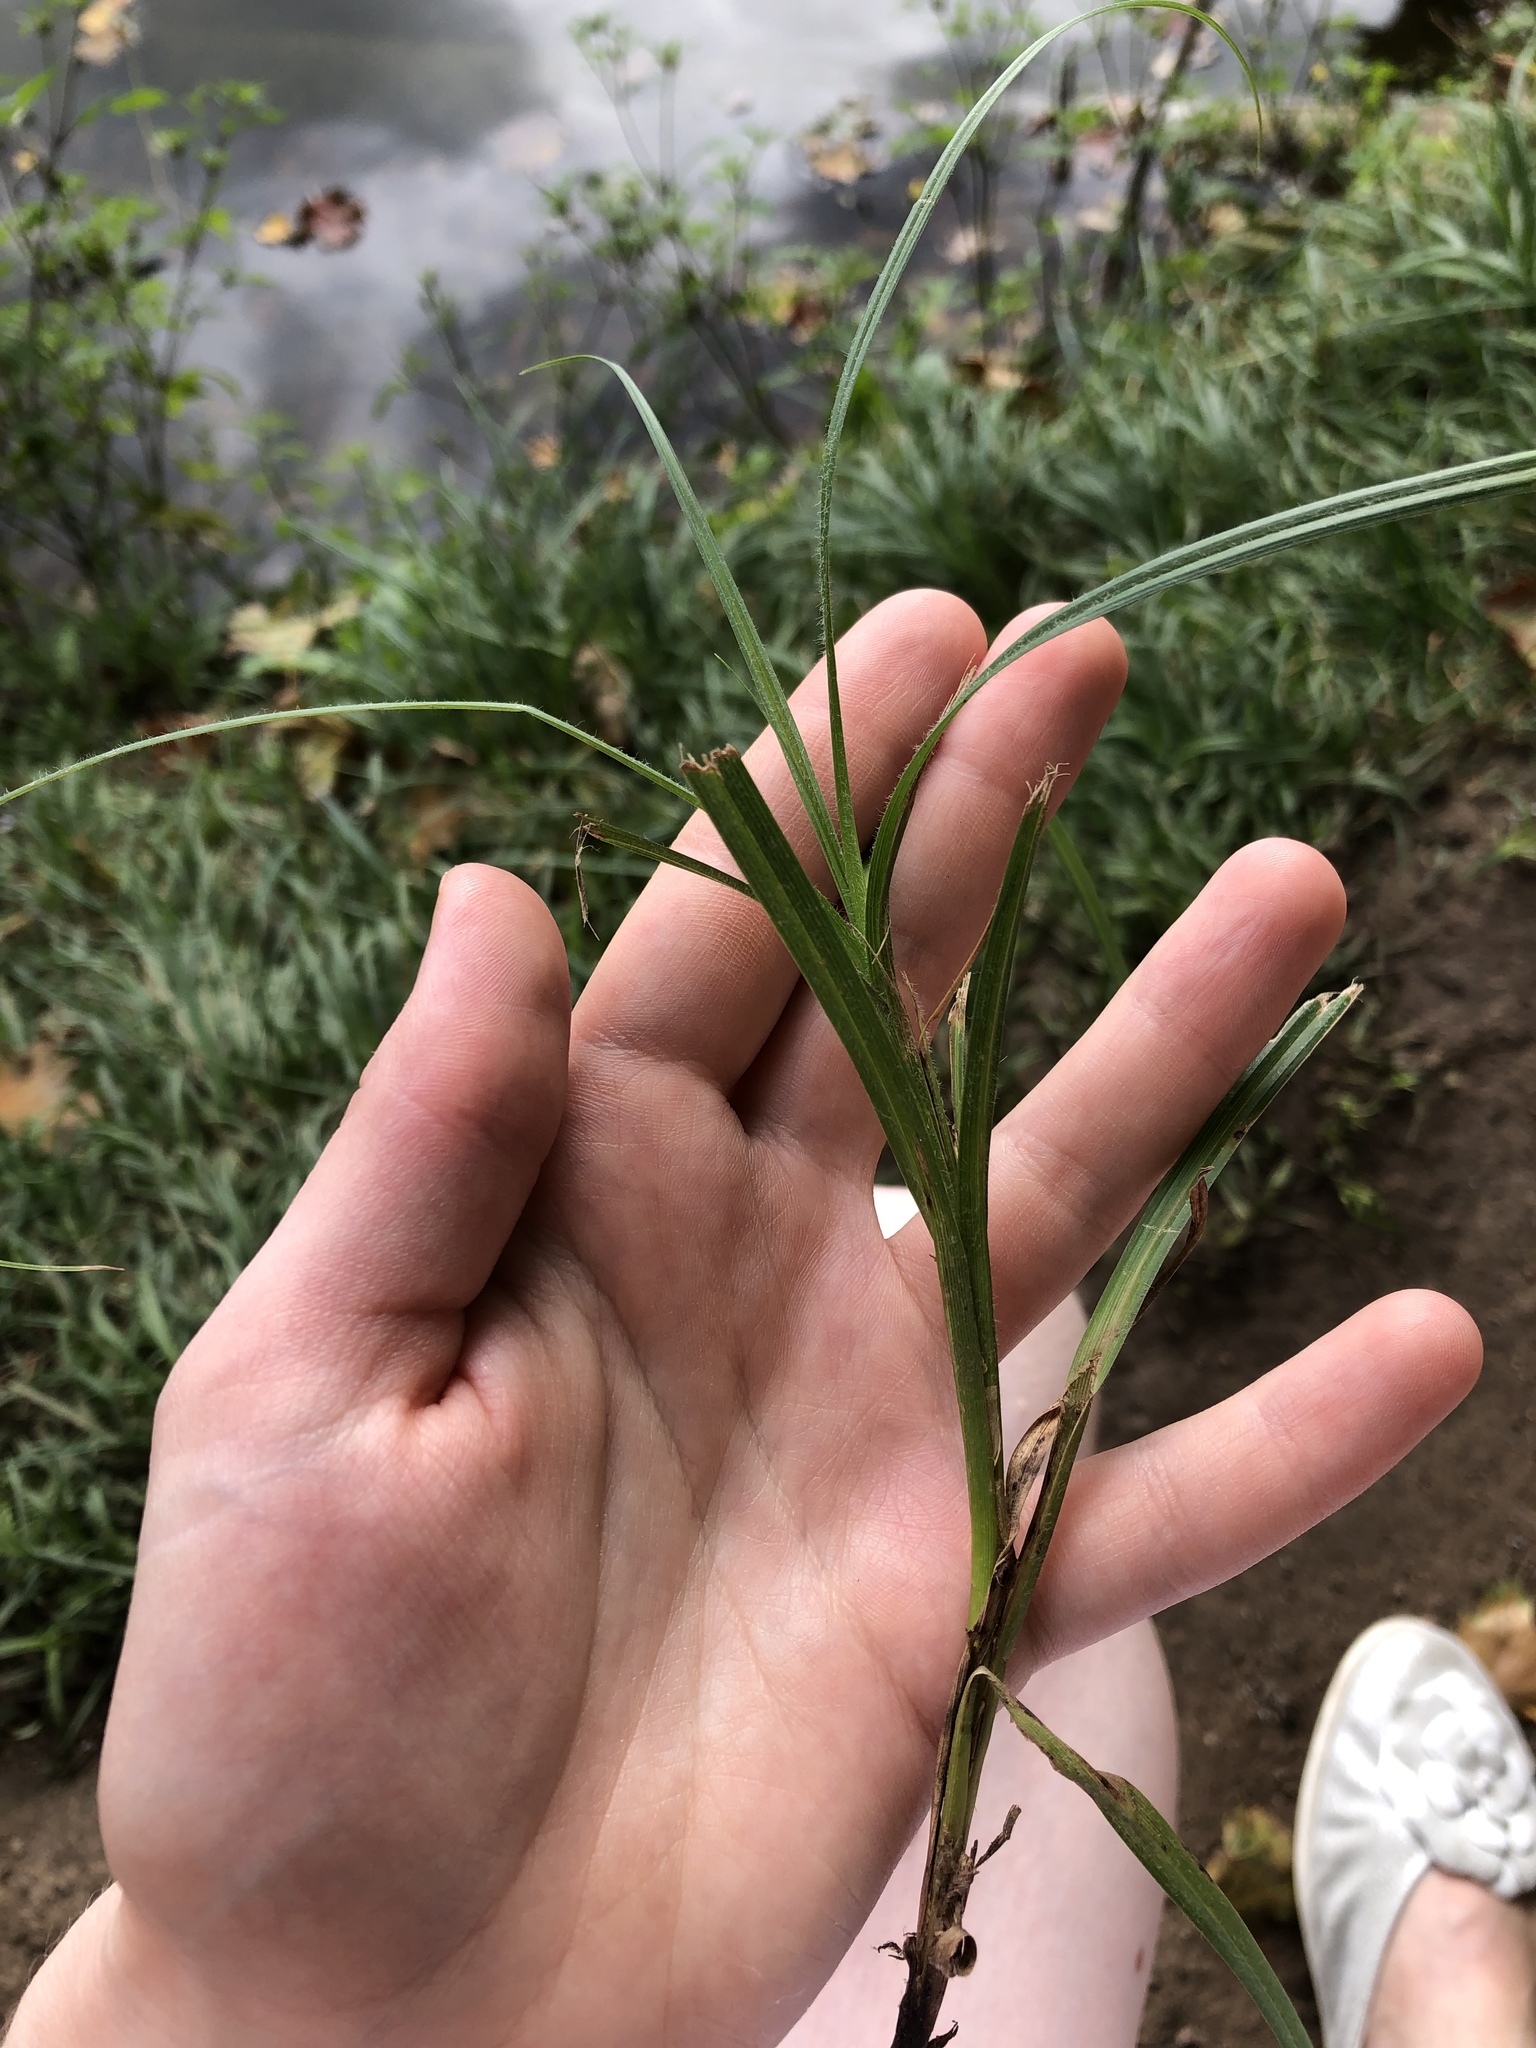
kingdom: Plantae
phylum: Tracheophyta
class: Liliopsida
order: Poales
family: Cyperaceae
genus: Carex
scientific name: Carex hirta
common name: Hairy sedge
